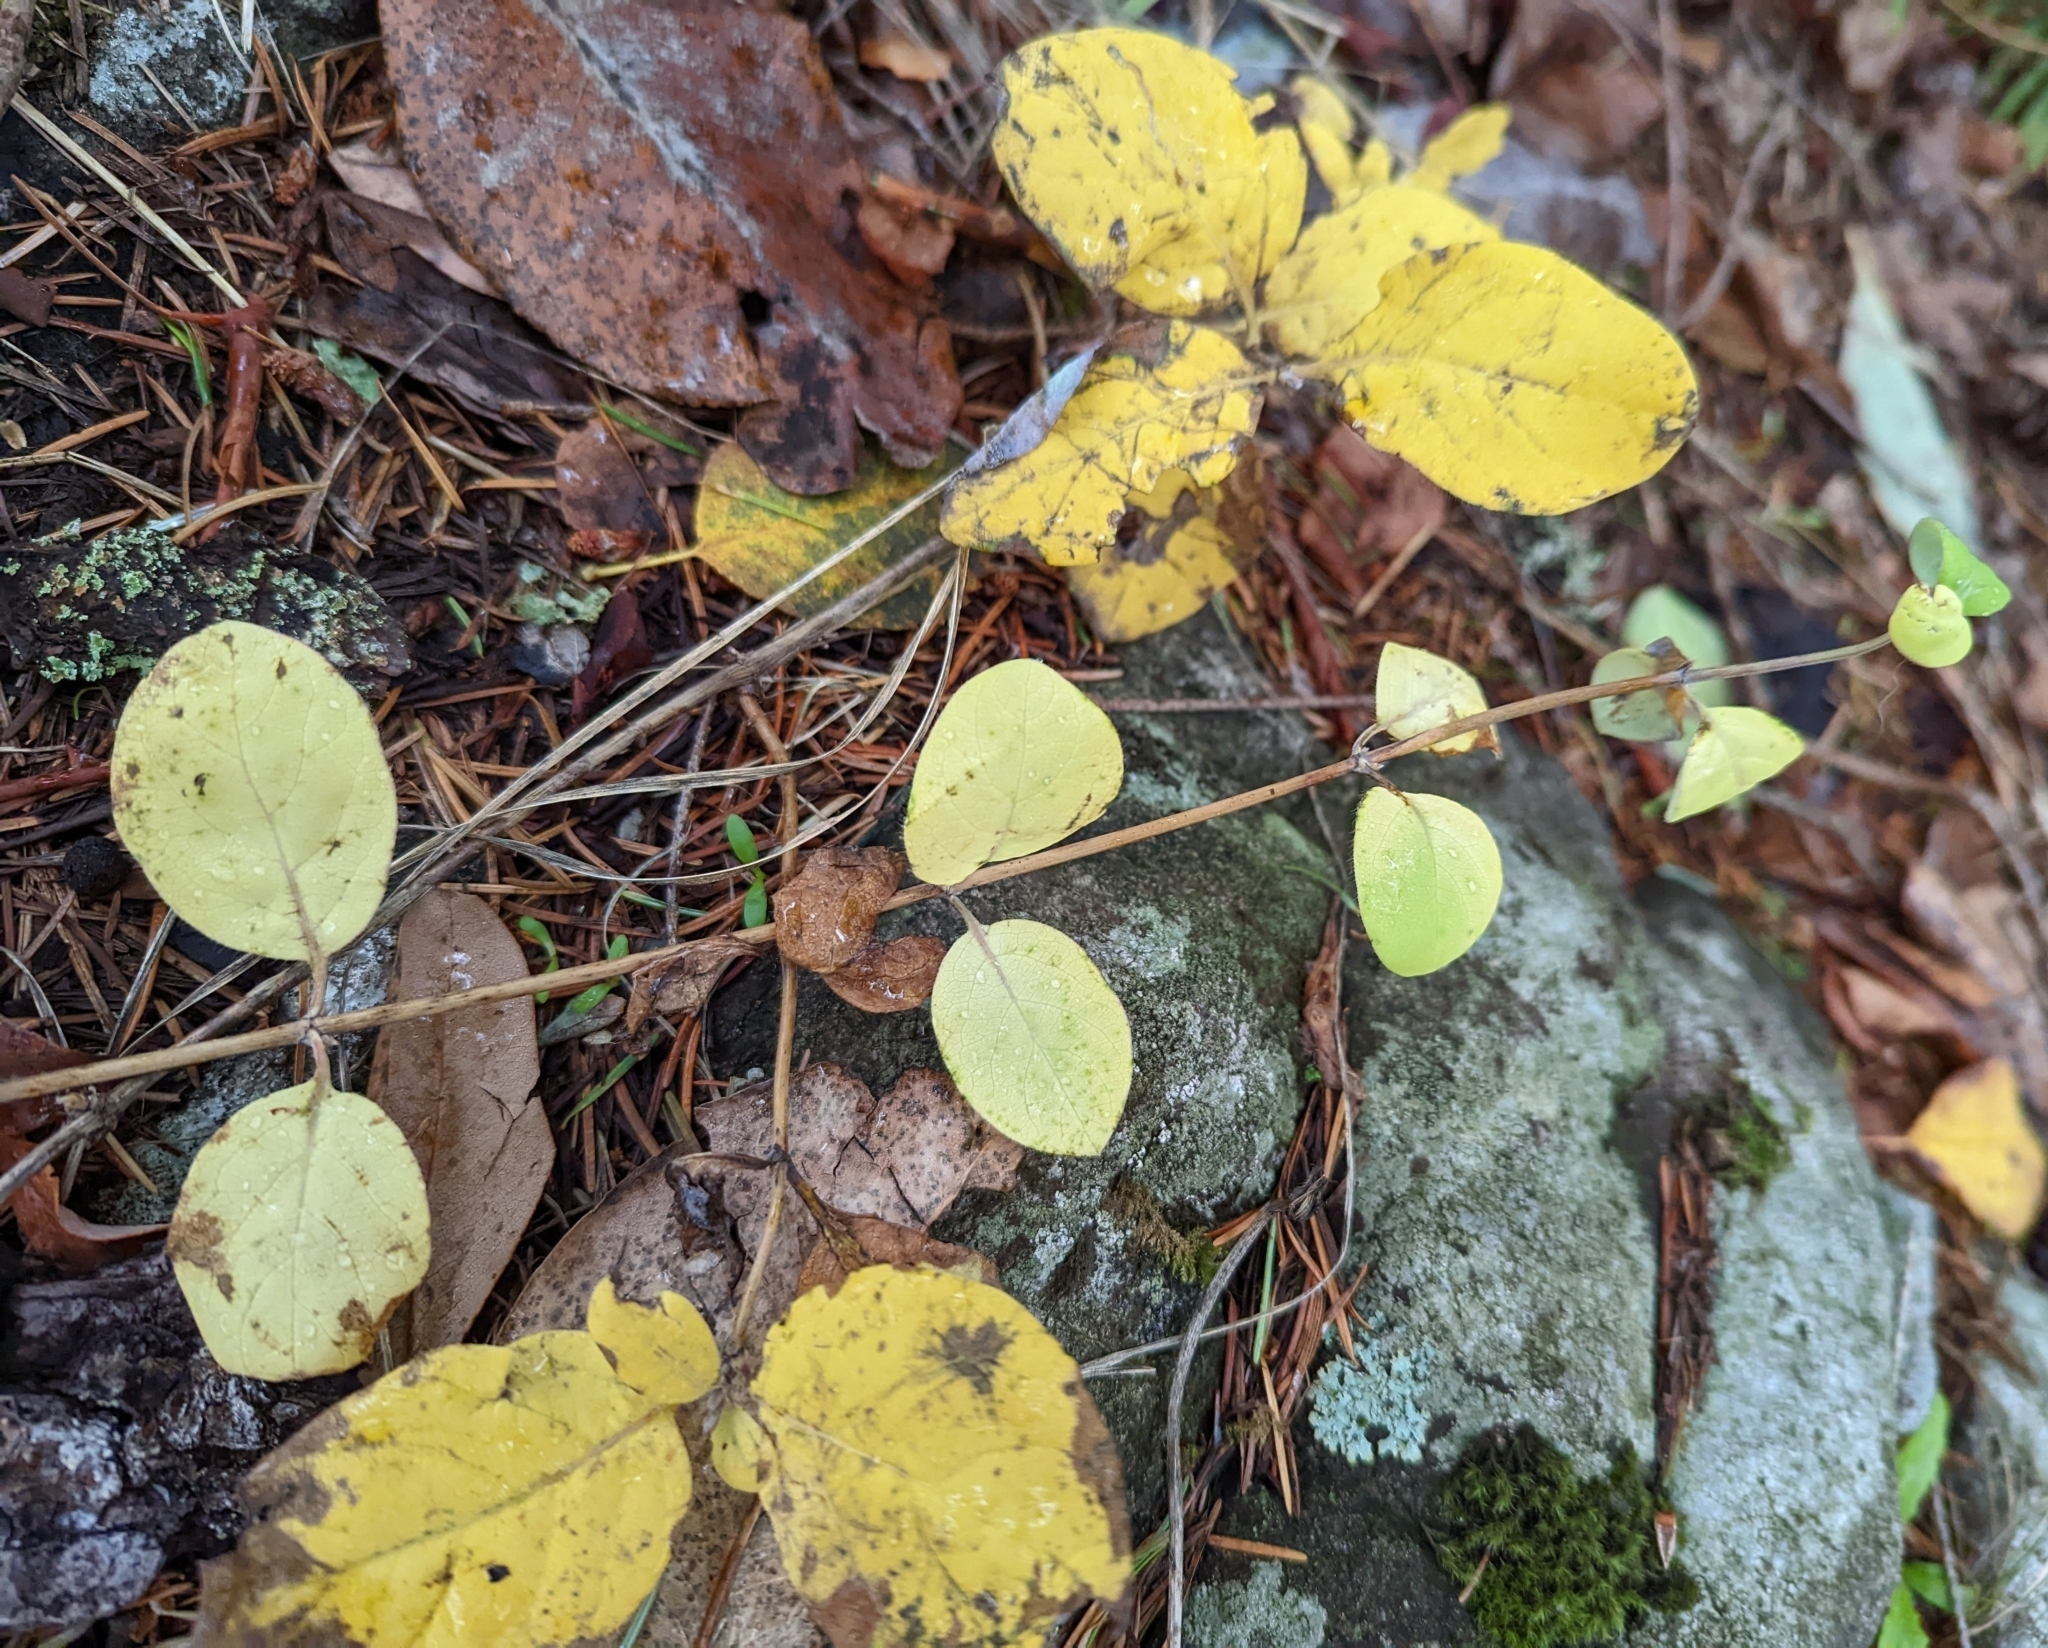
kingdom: Plantae
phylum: Tracheophyta
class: Magnoliopsida
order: Dipsacales
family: Caprifoliaceae
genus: Symphoricarpos
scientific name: Symphoricarpos mollis
